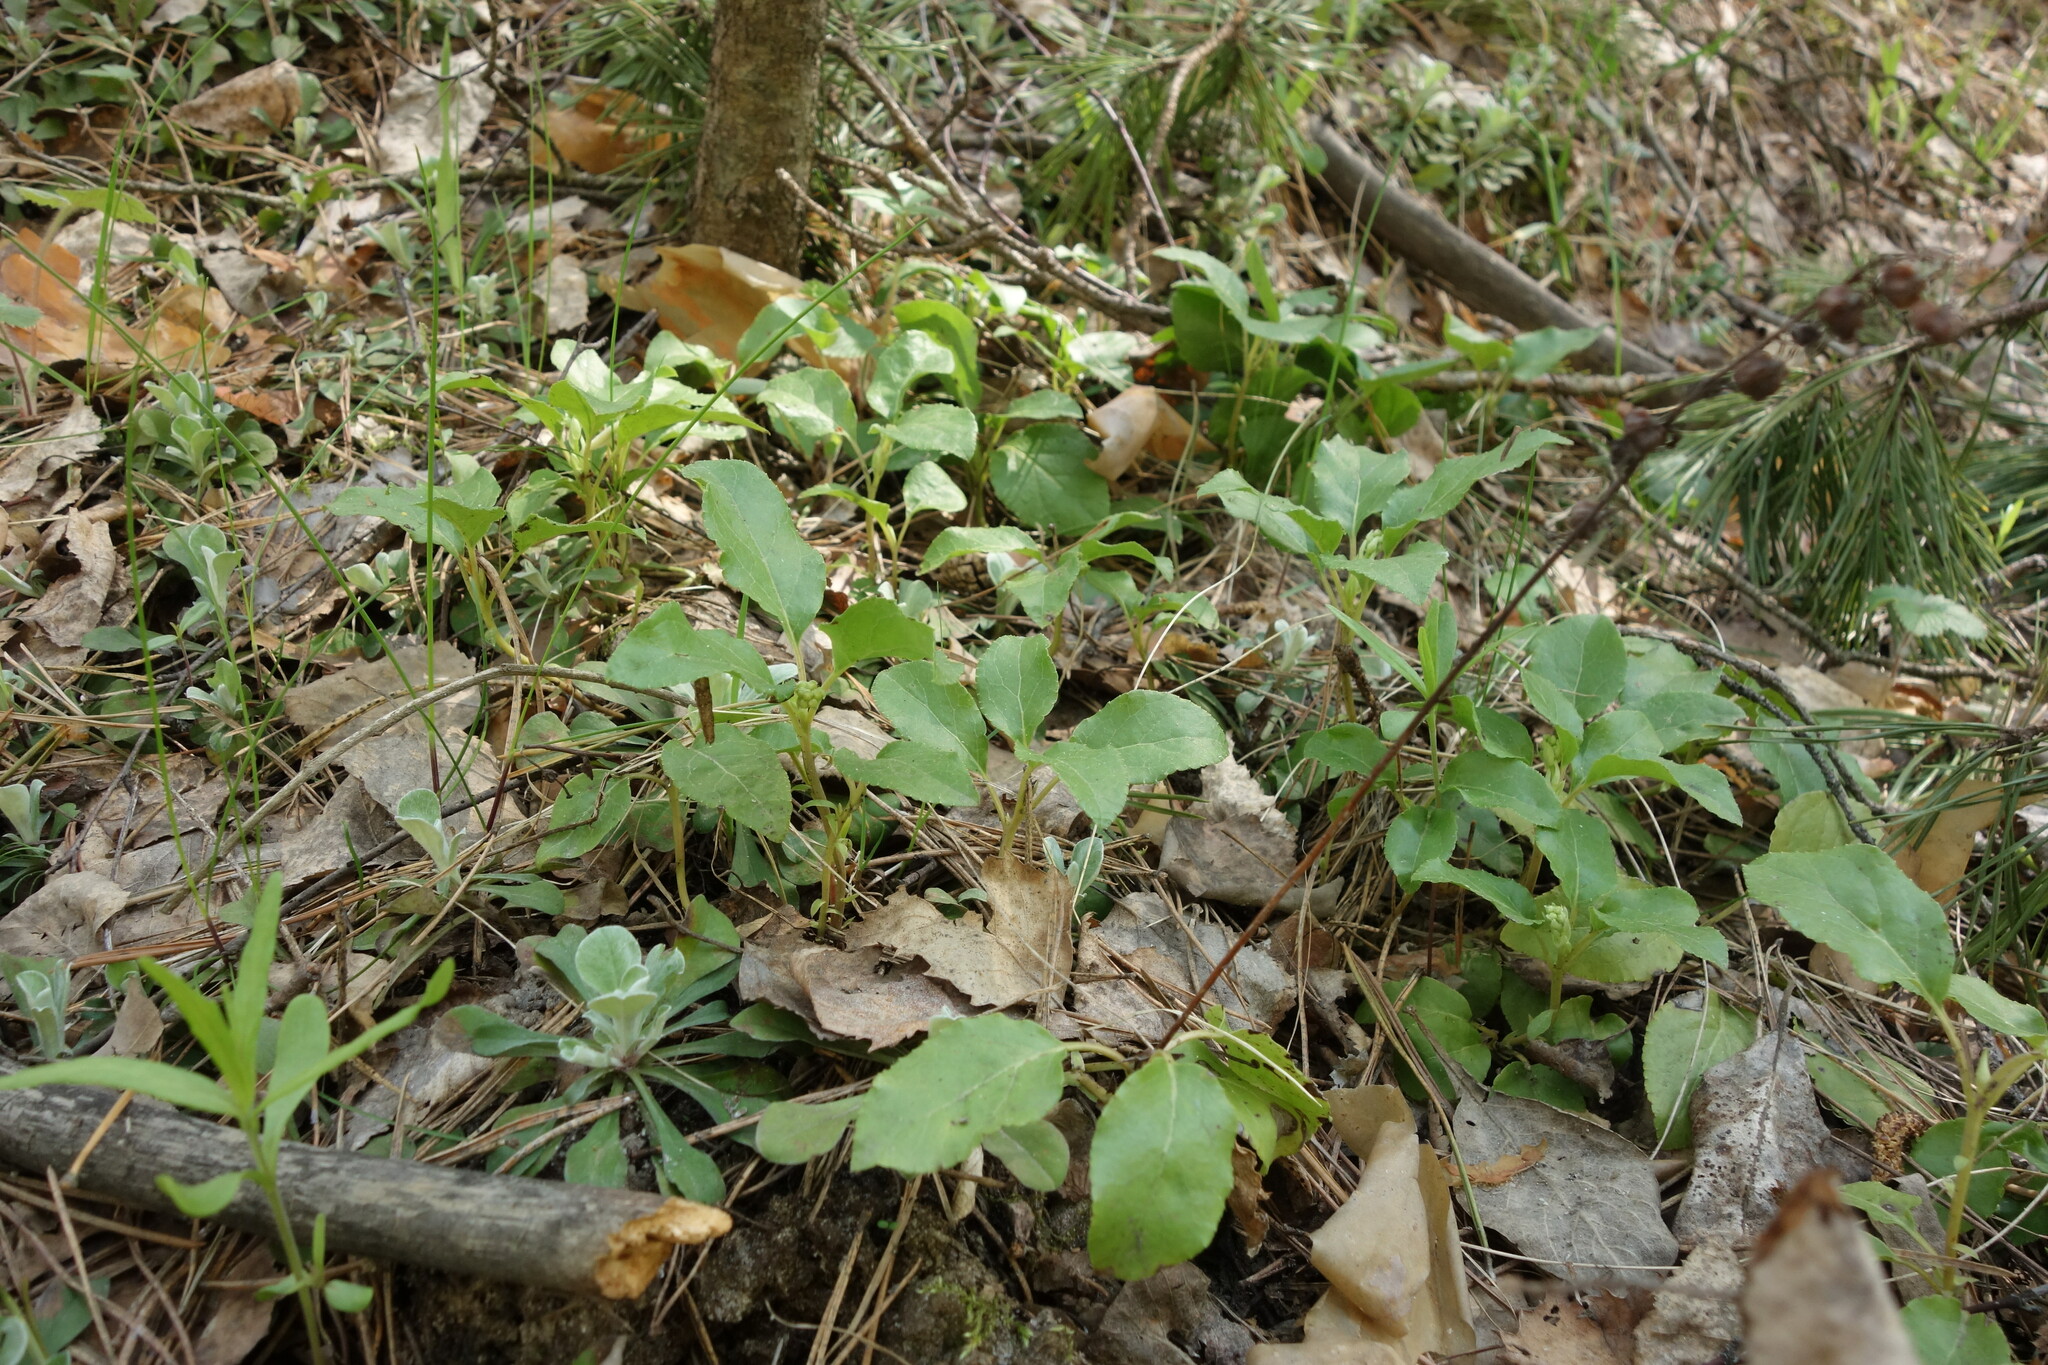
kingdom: Plantae
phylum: Tracheophyta
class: Magnoliopsida
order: Ericales
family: Ericaceae
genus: Orthilia
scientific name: Orthilia secunda
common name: One-sided orthilia
